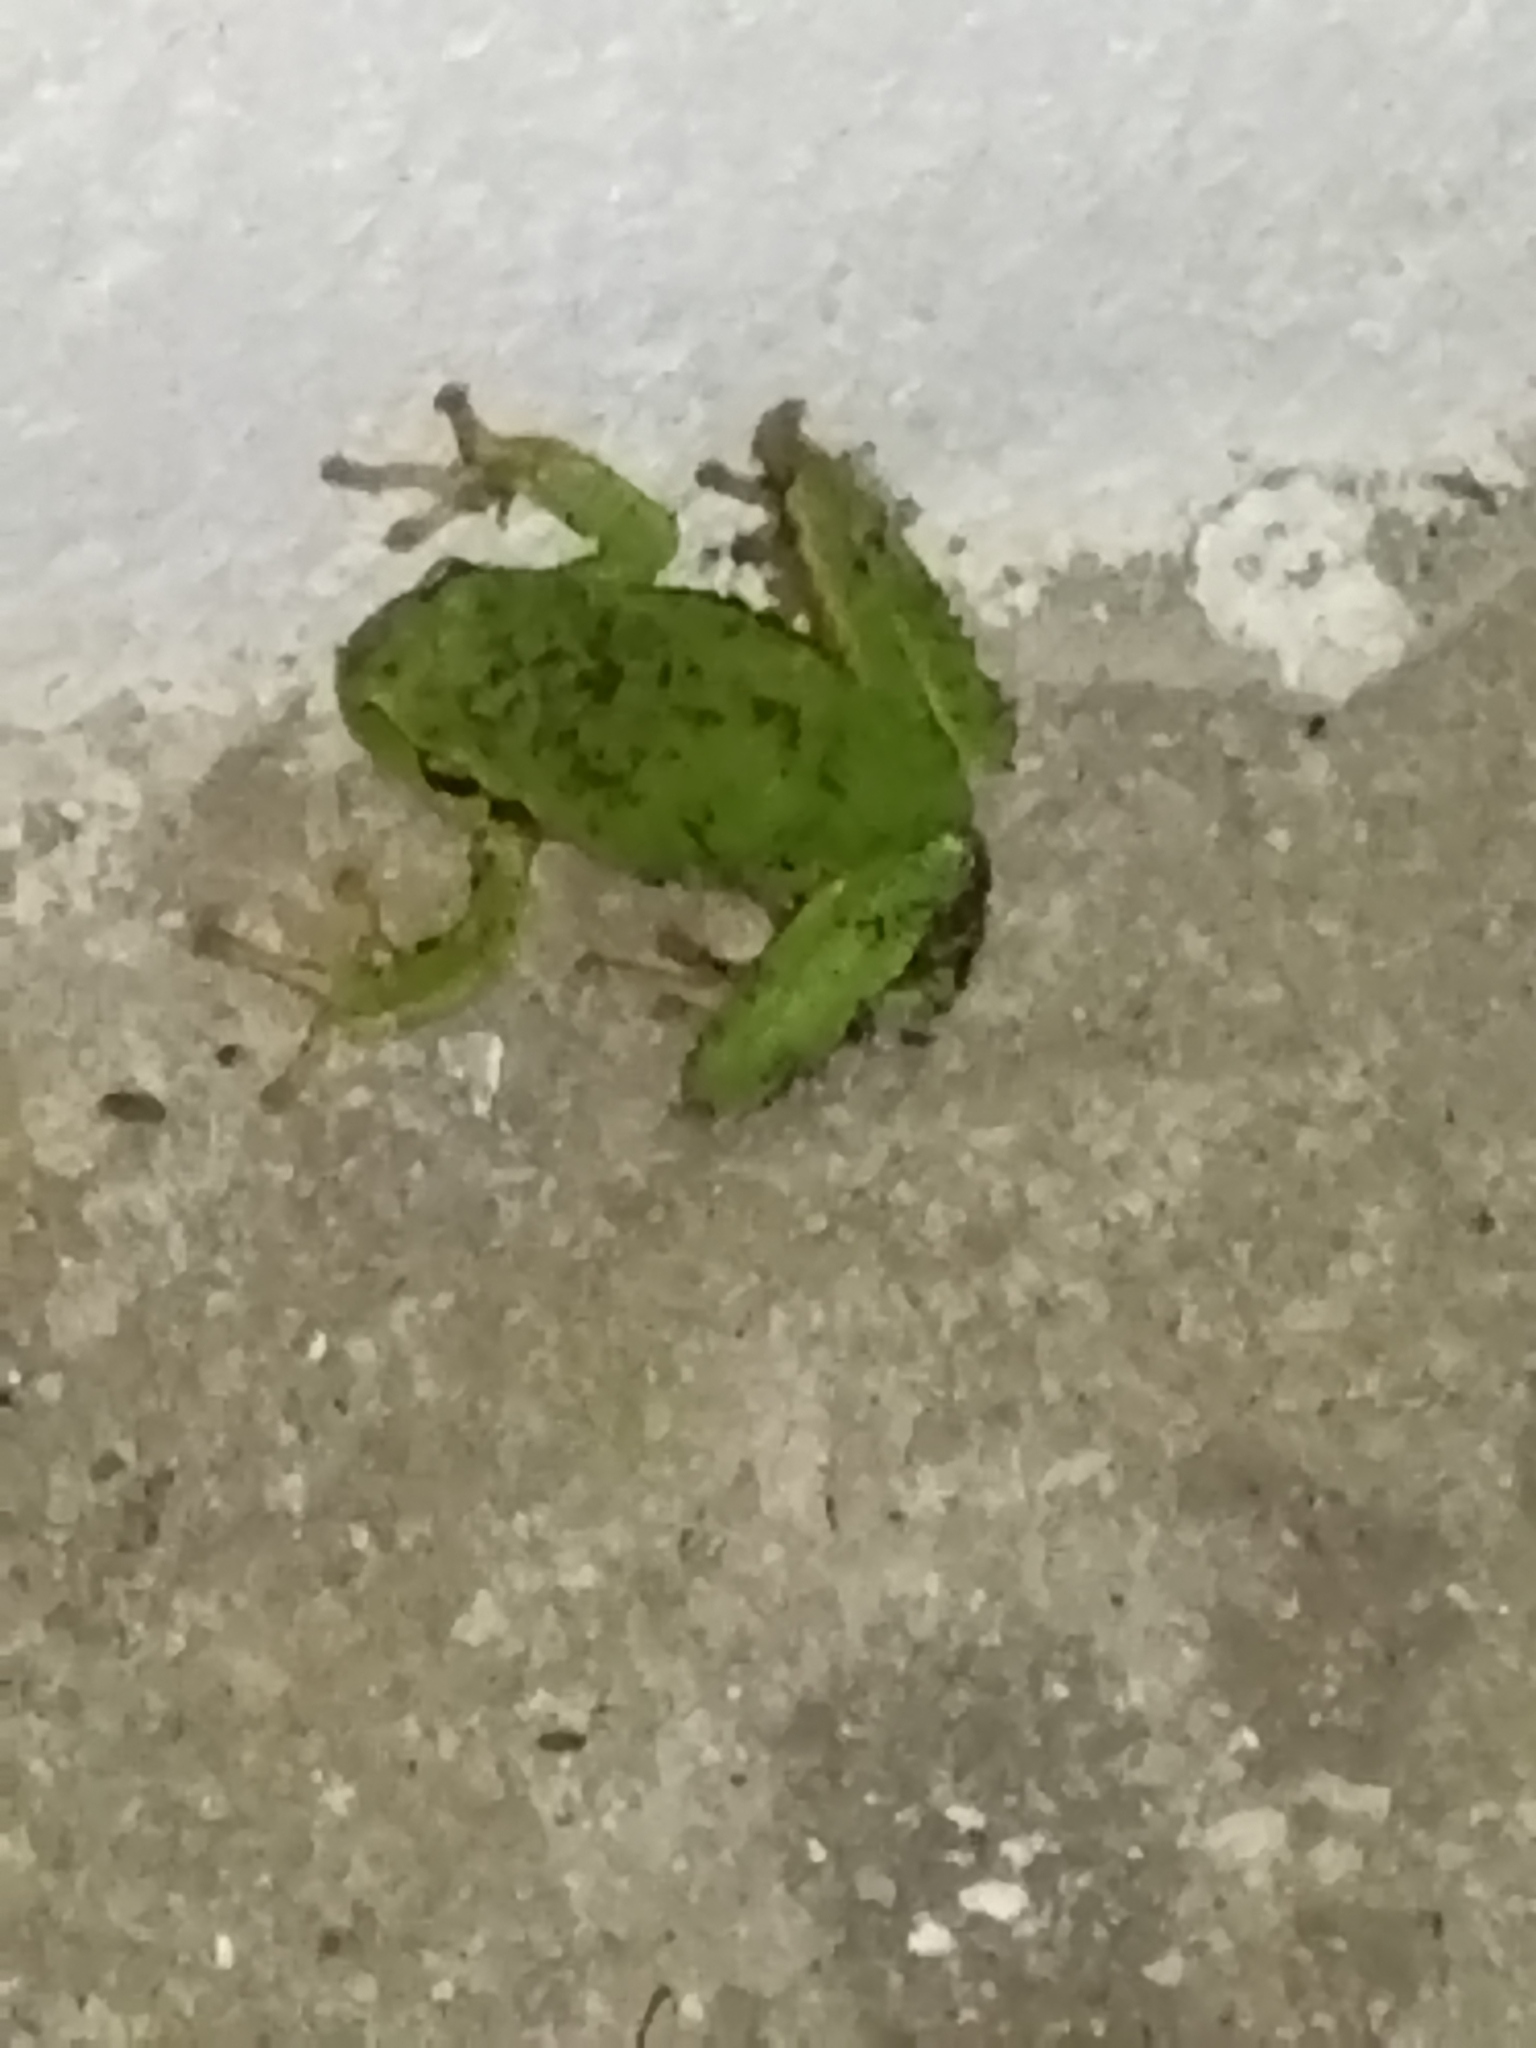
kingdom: Animalia
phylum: Chordata
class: Amphibia
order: Anura
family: Hylidae
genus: Hyla
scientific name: Hyla orientalis
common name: Caucasian treefrog
